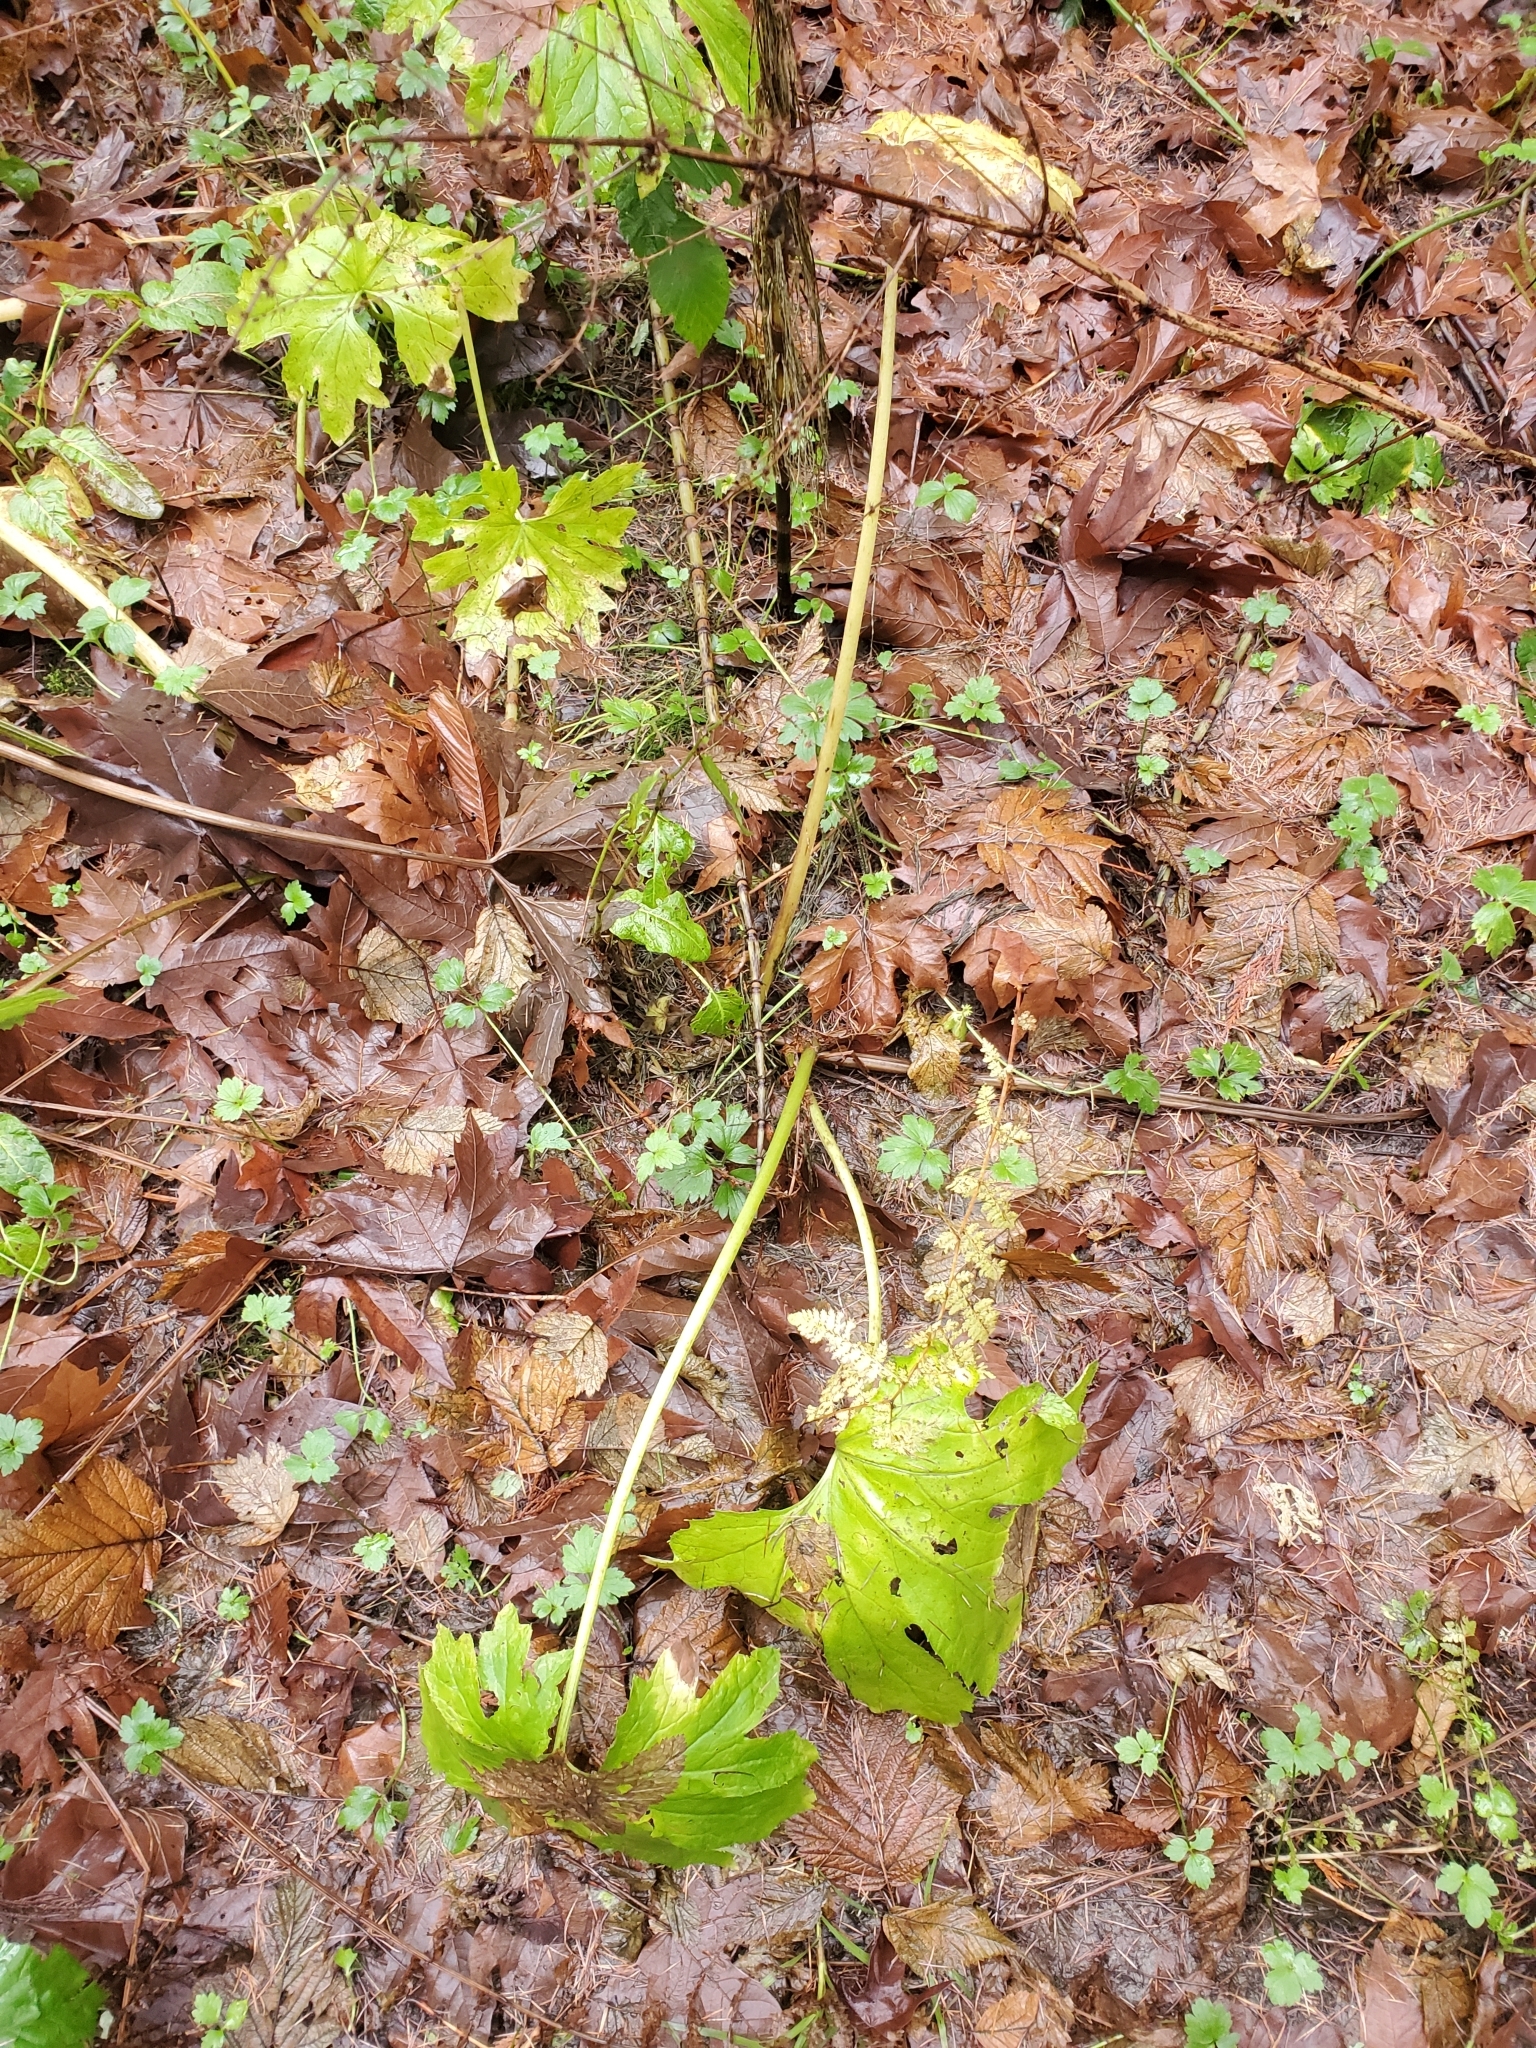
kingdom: Plantae
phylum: Tracheophyta
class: Magnoliopsida
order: Asterales
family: Asteraceae
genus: Petasites
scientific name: Petasites frigidus
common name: Arctic butterbur
